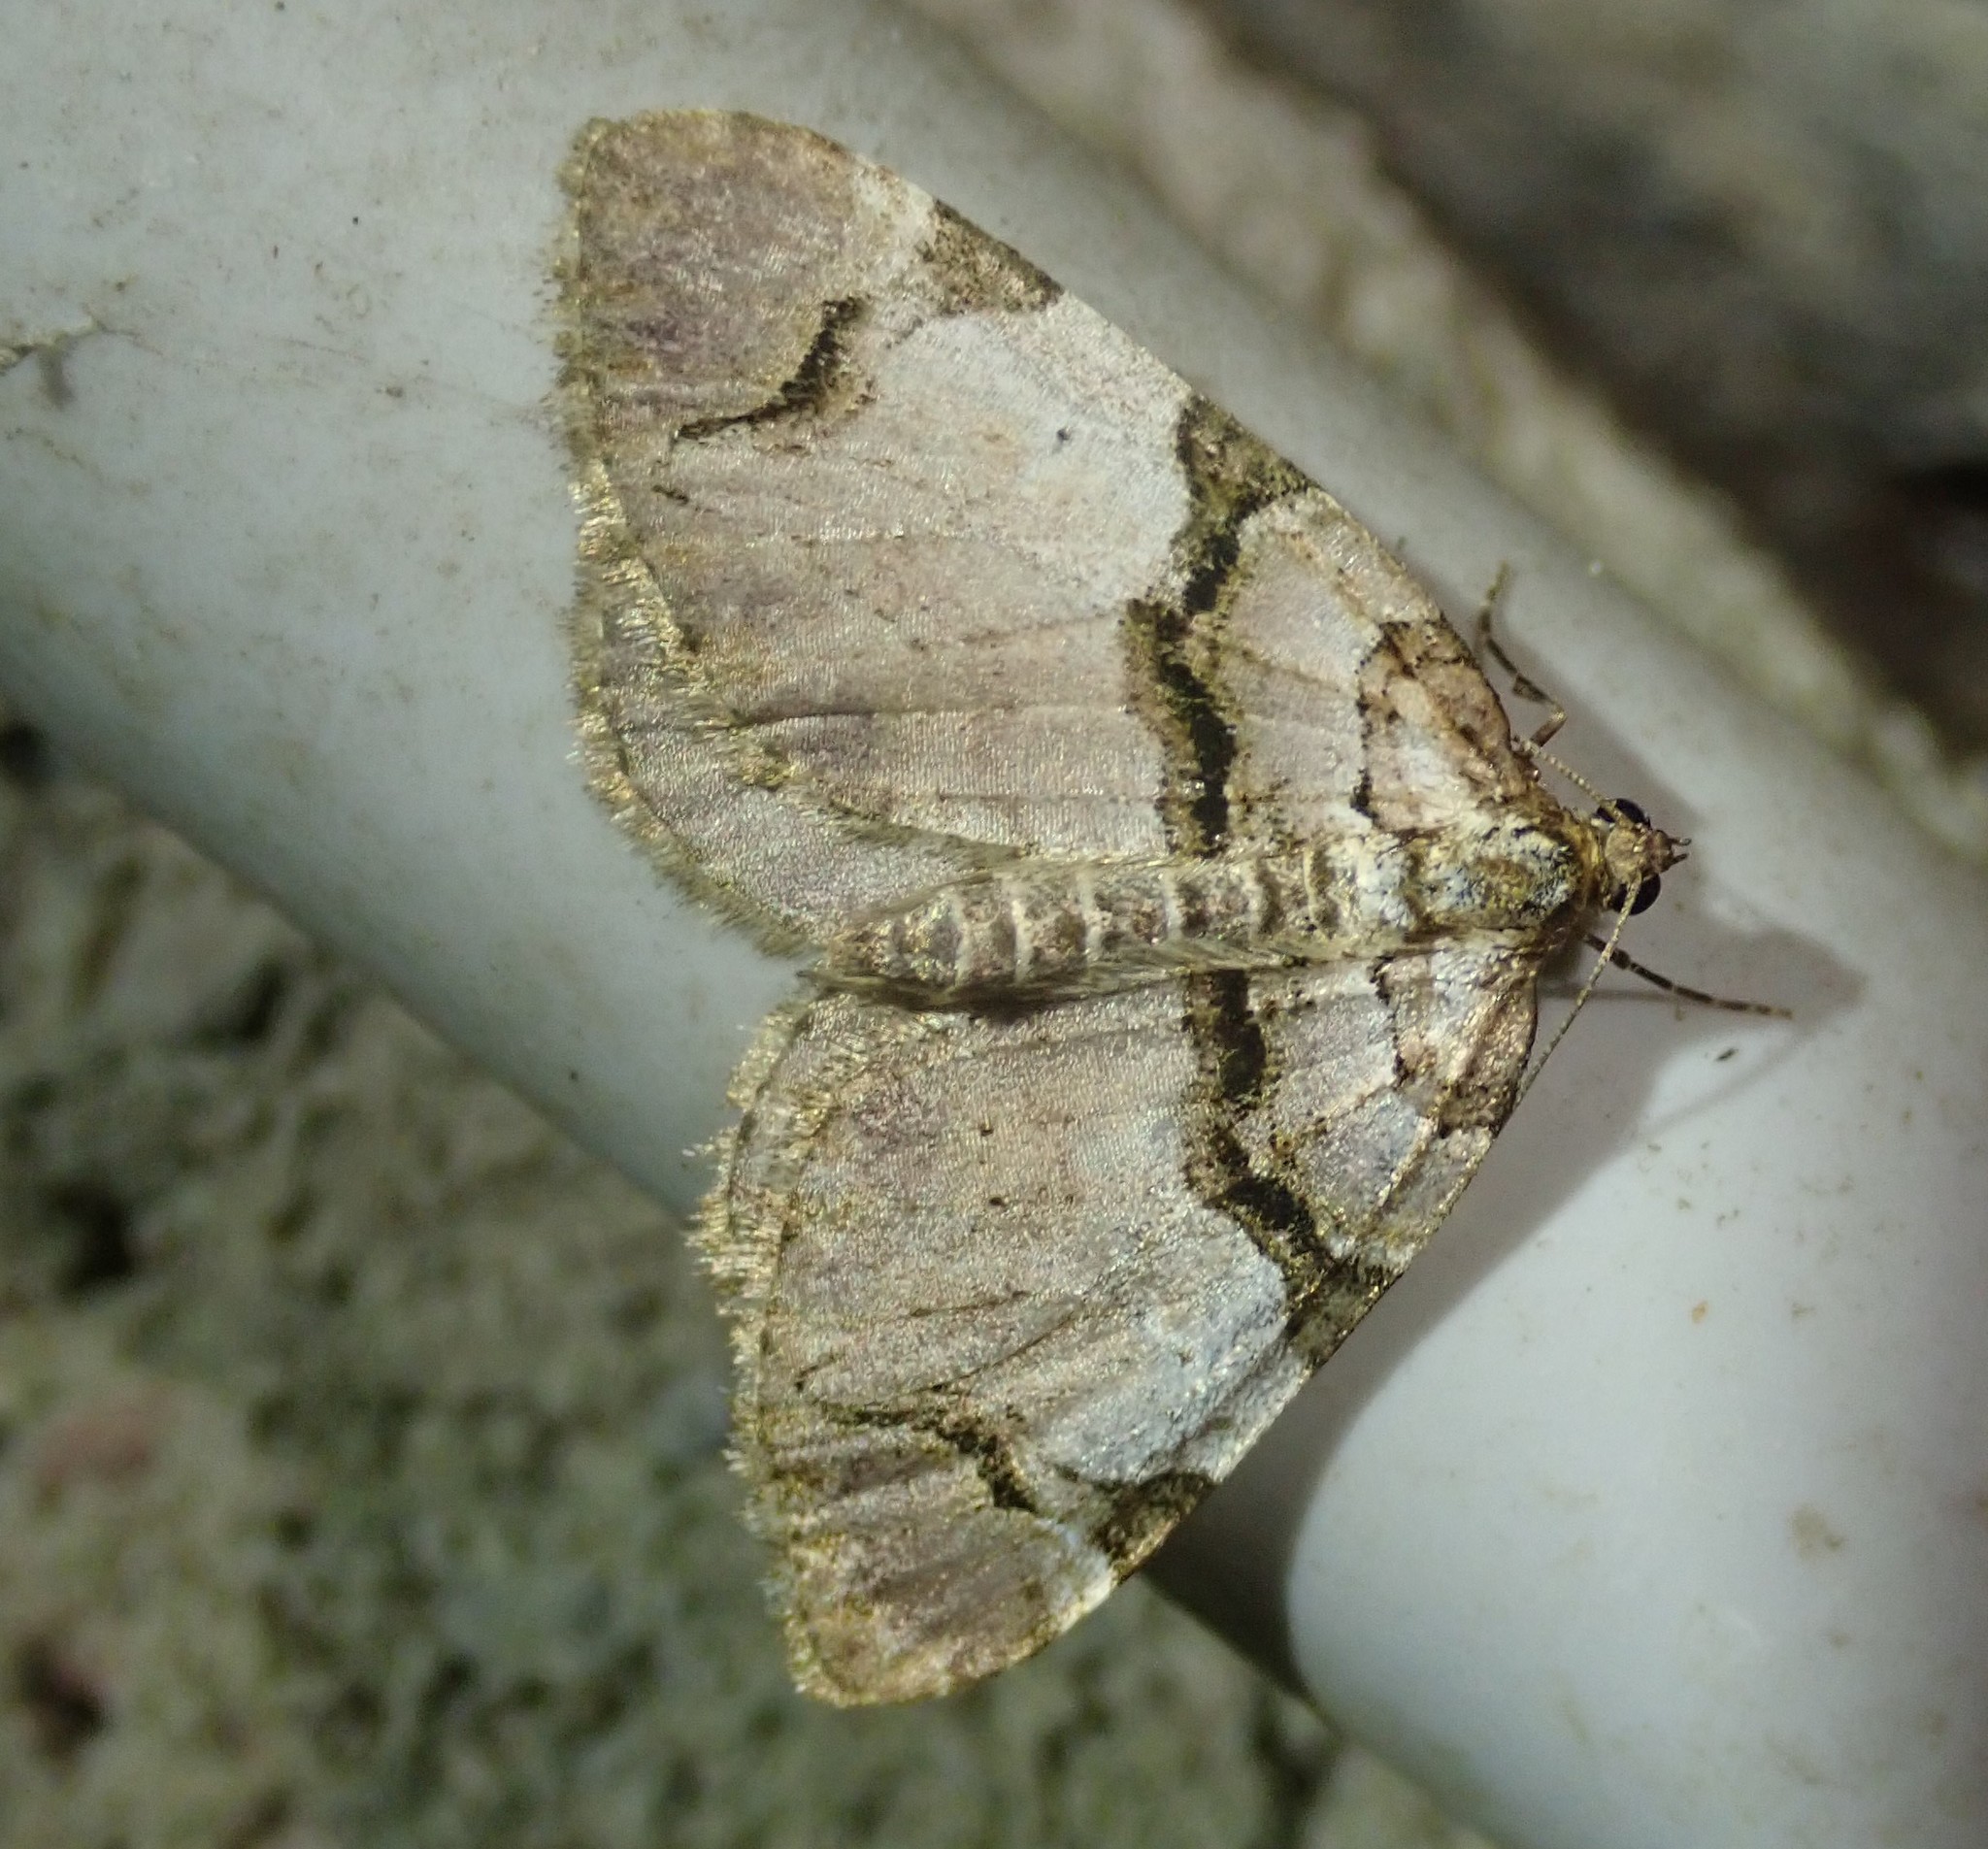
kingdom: Animalia
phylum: Arthropoda
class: Insecta
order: Lepidoptera
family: Geometridae
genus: Anticlea
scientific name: Anticlea derivata
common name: Streamer
